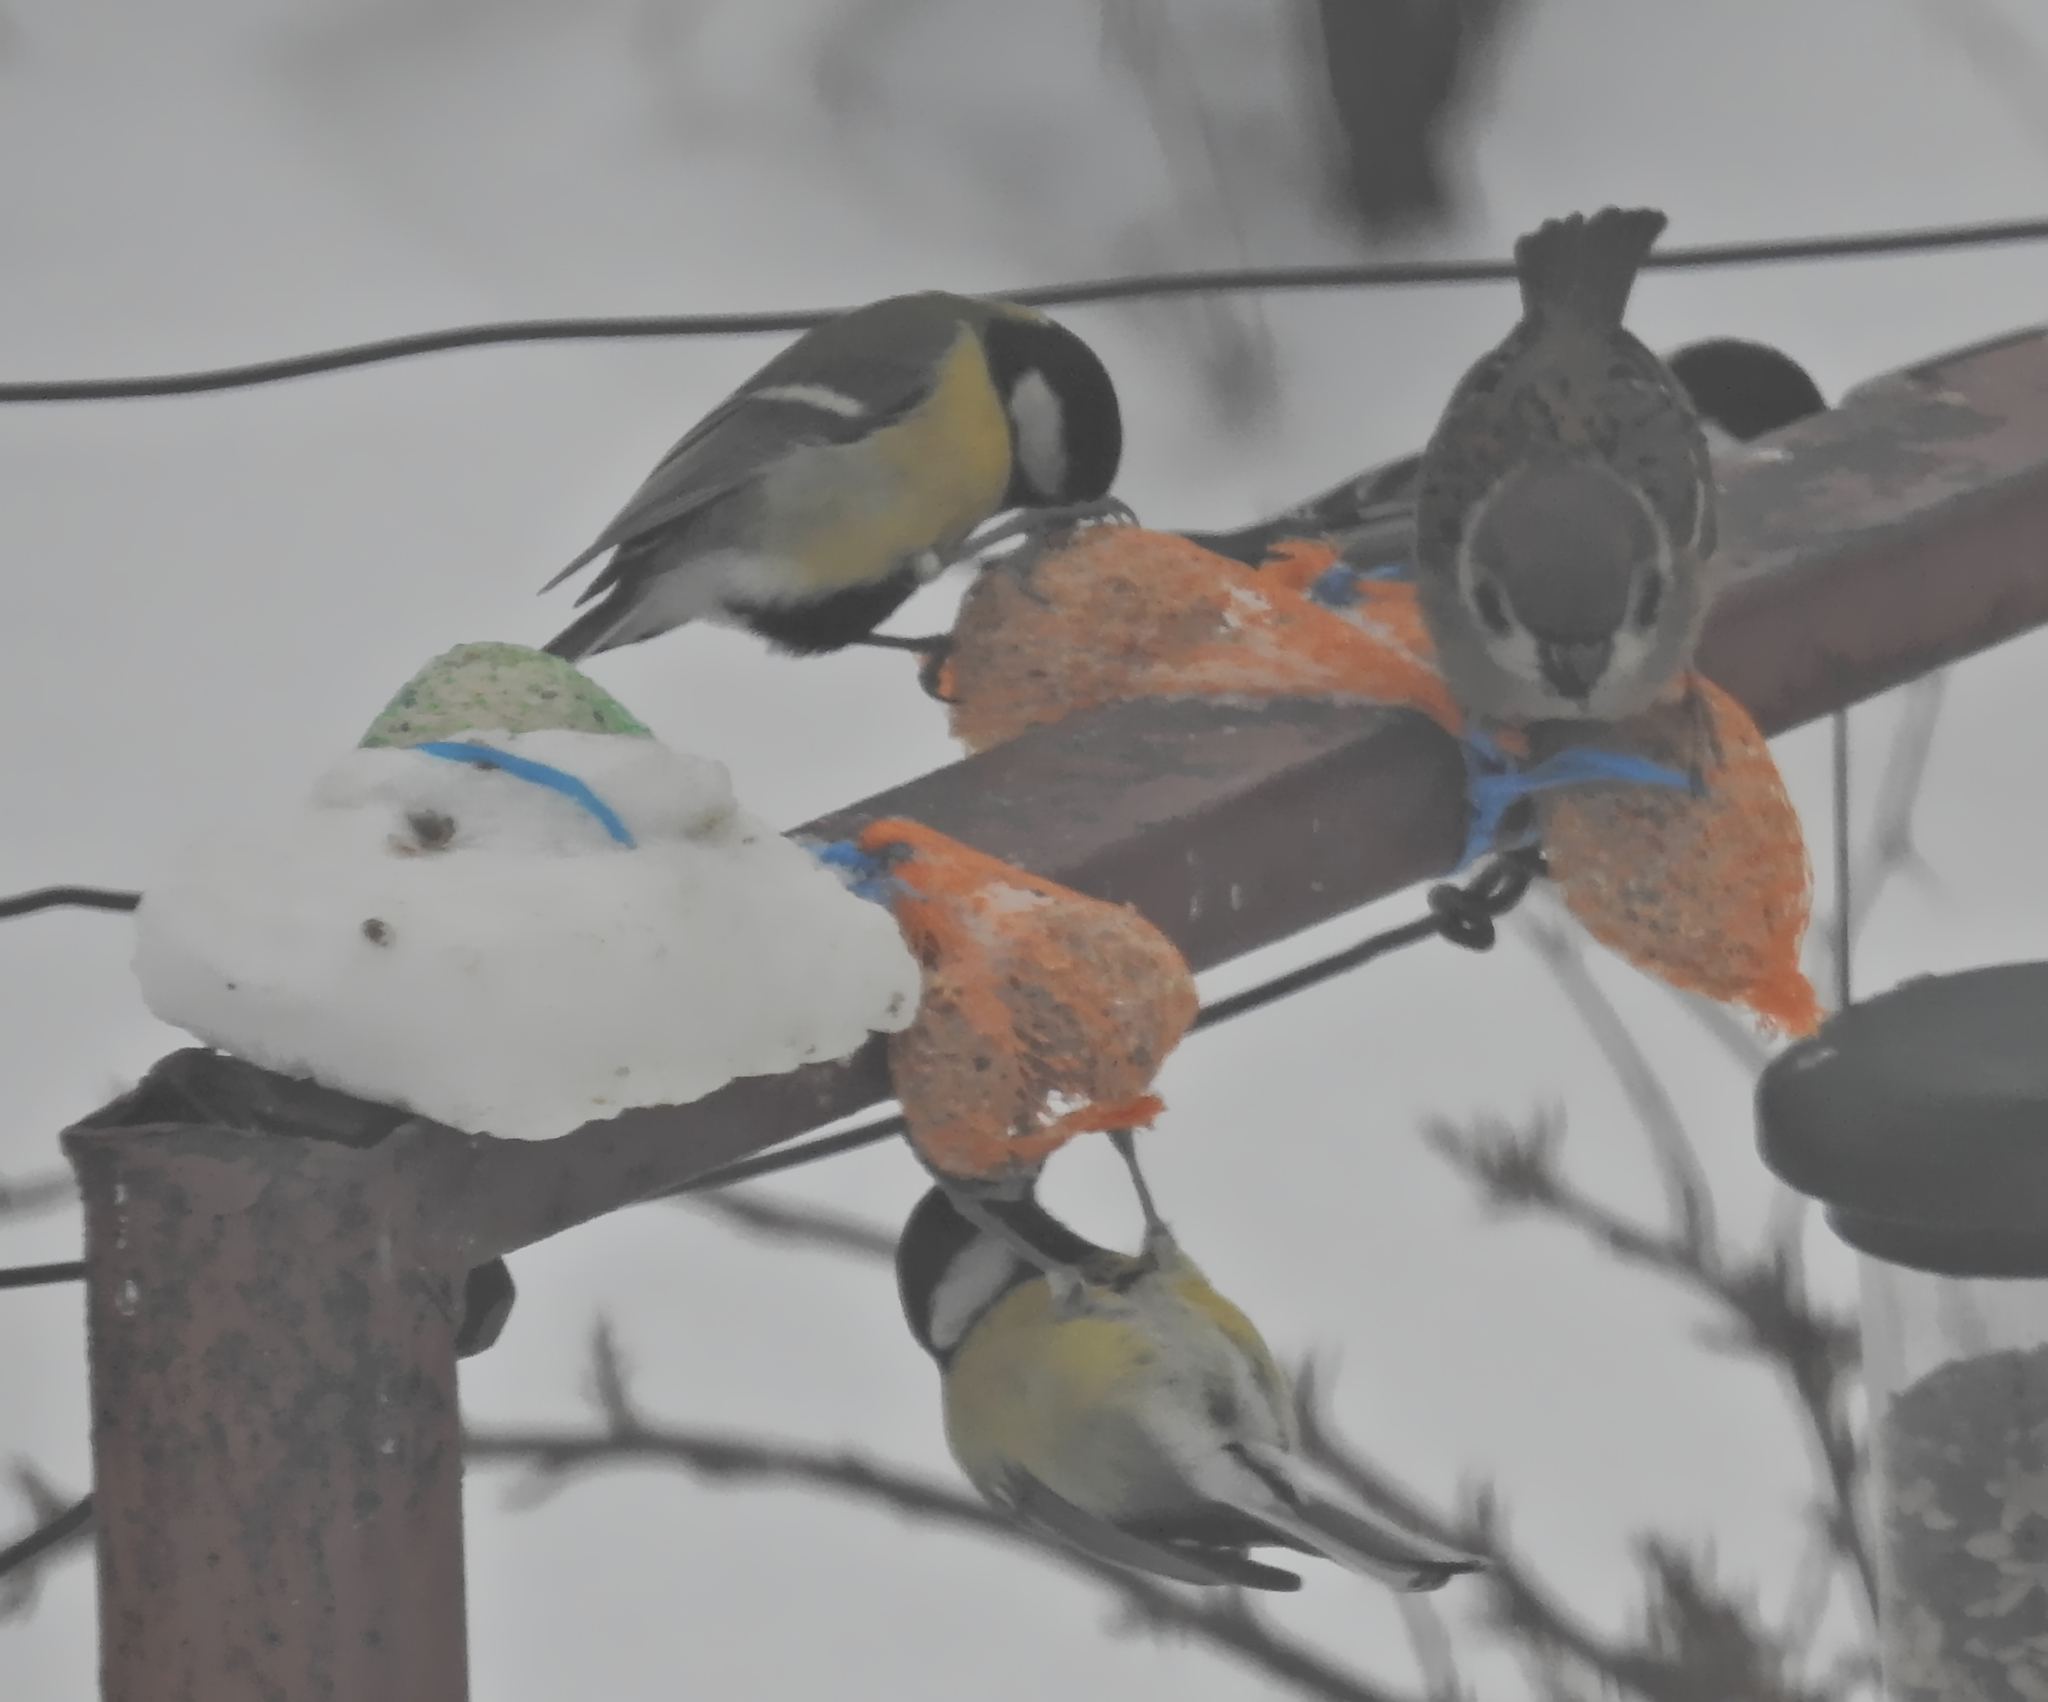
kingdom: Animalia
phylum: Chordata
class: Aves
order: Passeriformes
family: Paridae
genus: Parus
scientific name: Parus major
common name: Great tit
